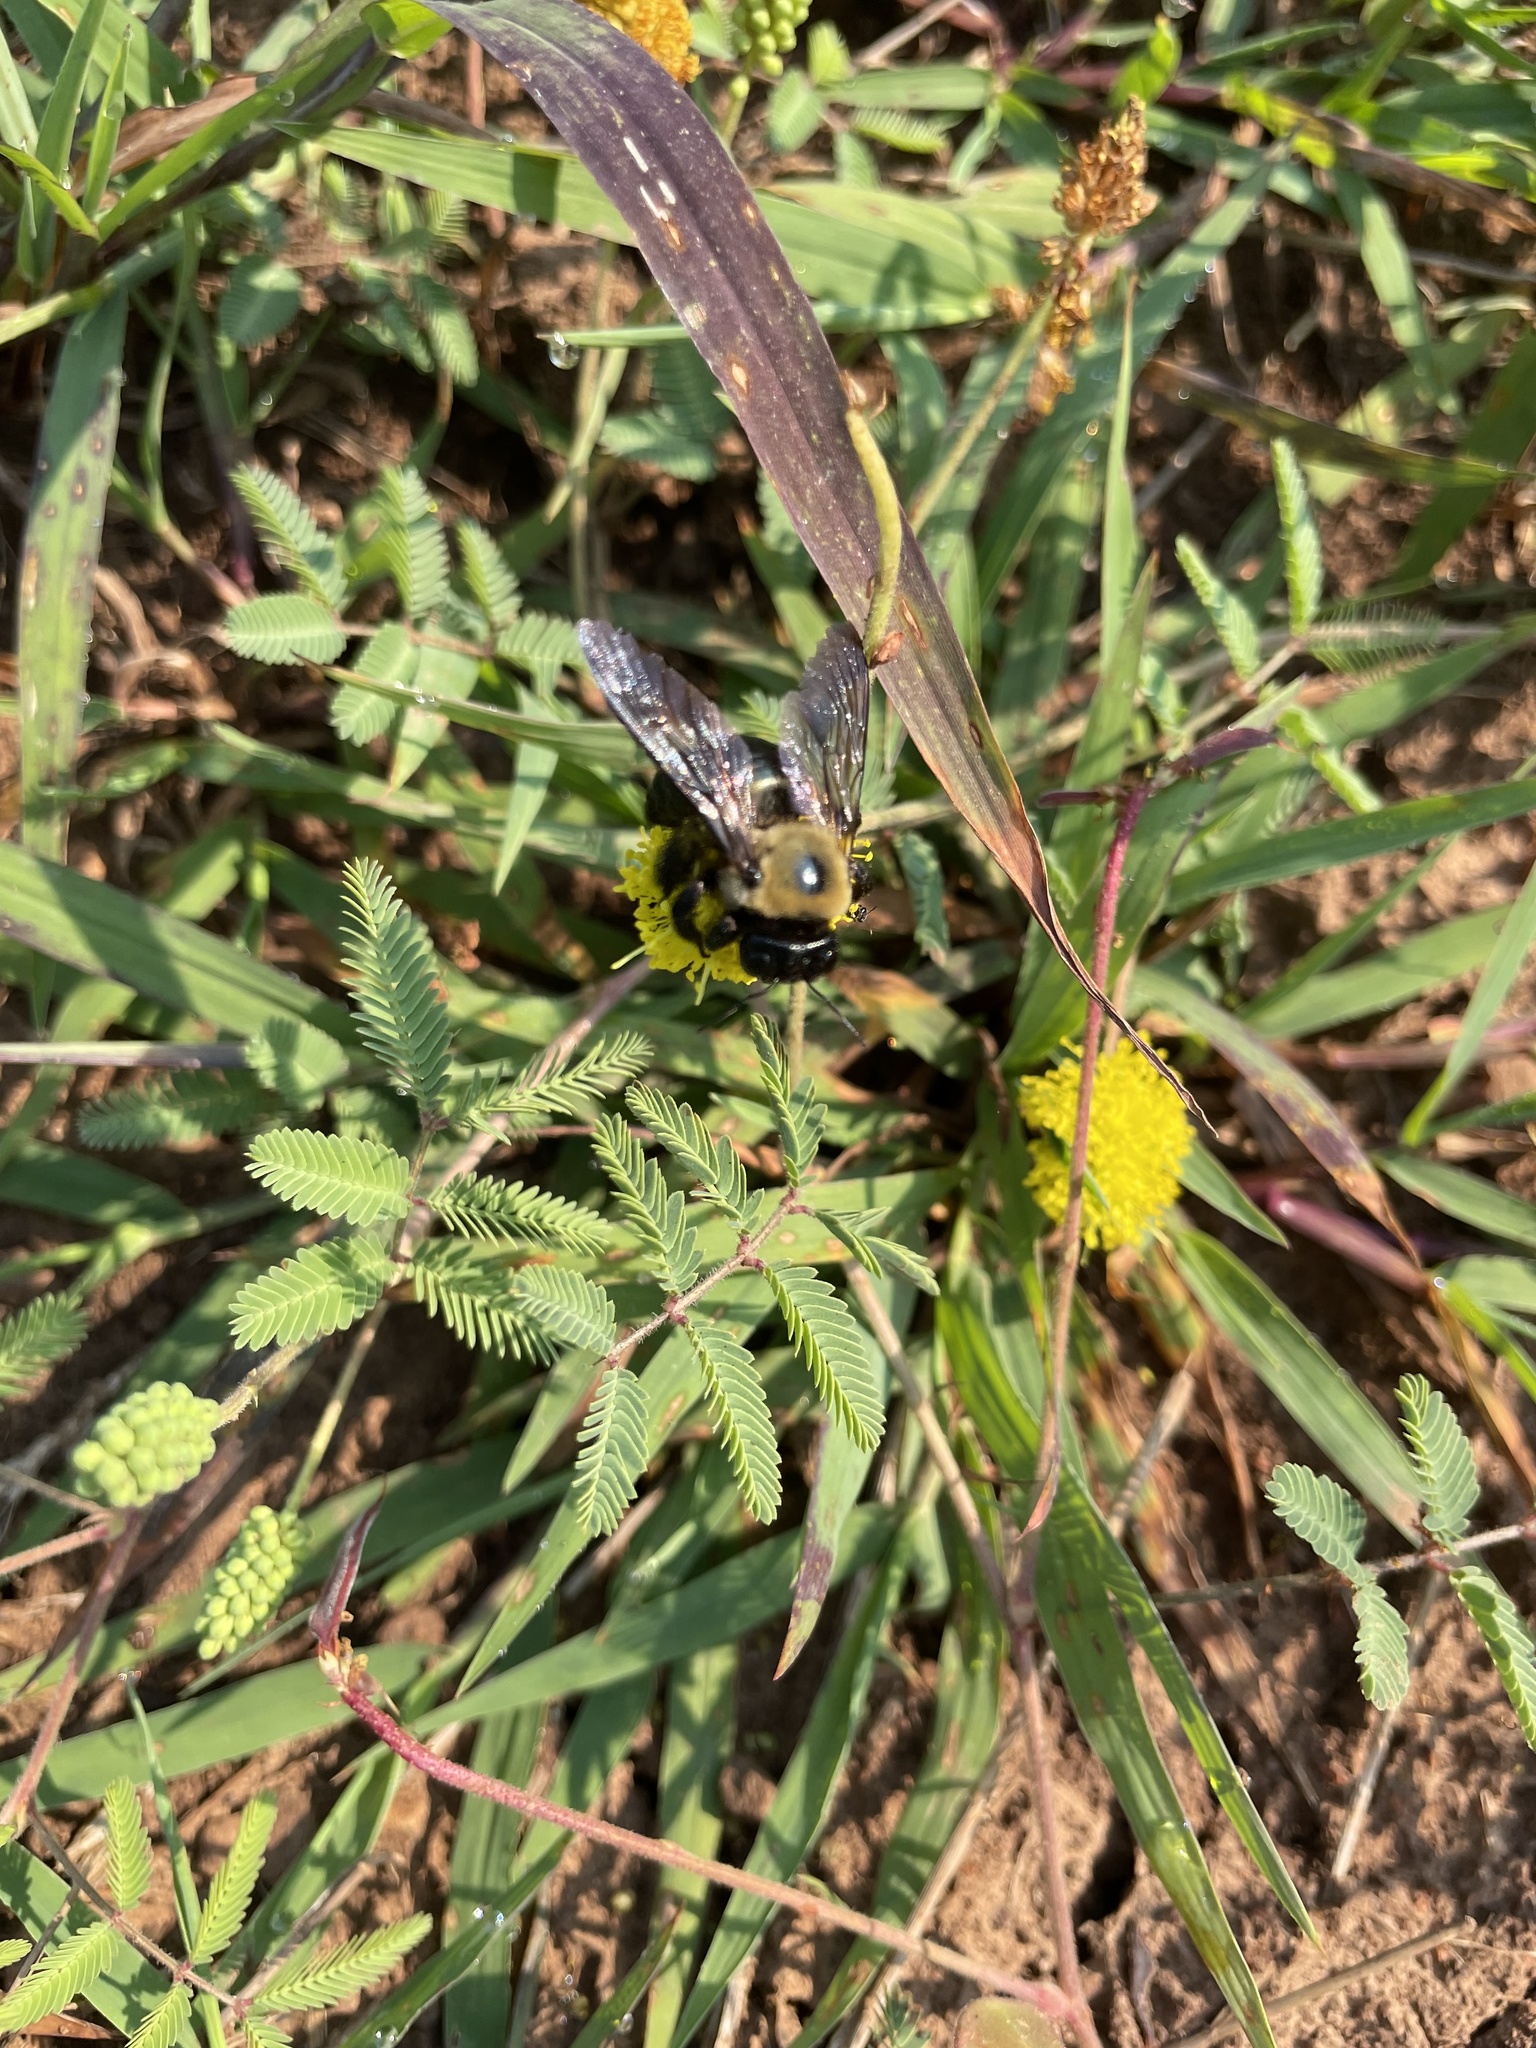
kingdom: Animalia
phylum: Arthropoda
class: Insecta
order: Hymenoptera
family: Apidae
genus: Xylocopa
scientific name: Xylocopa virginica
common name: Carpenter bee
